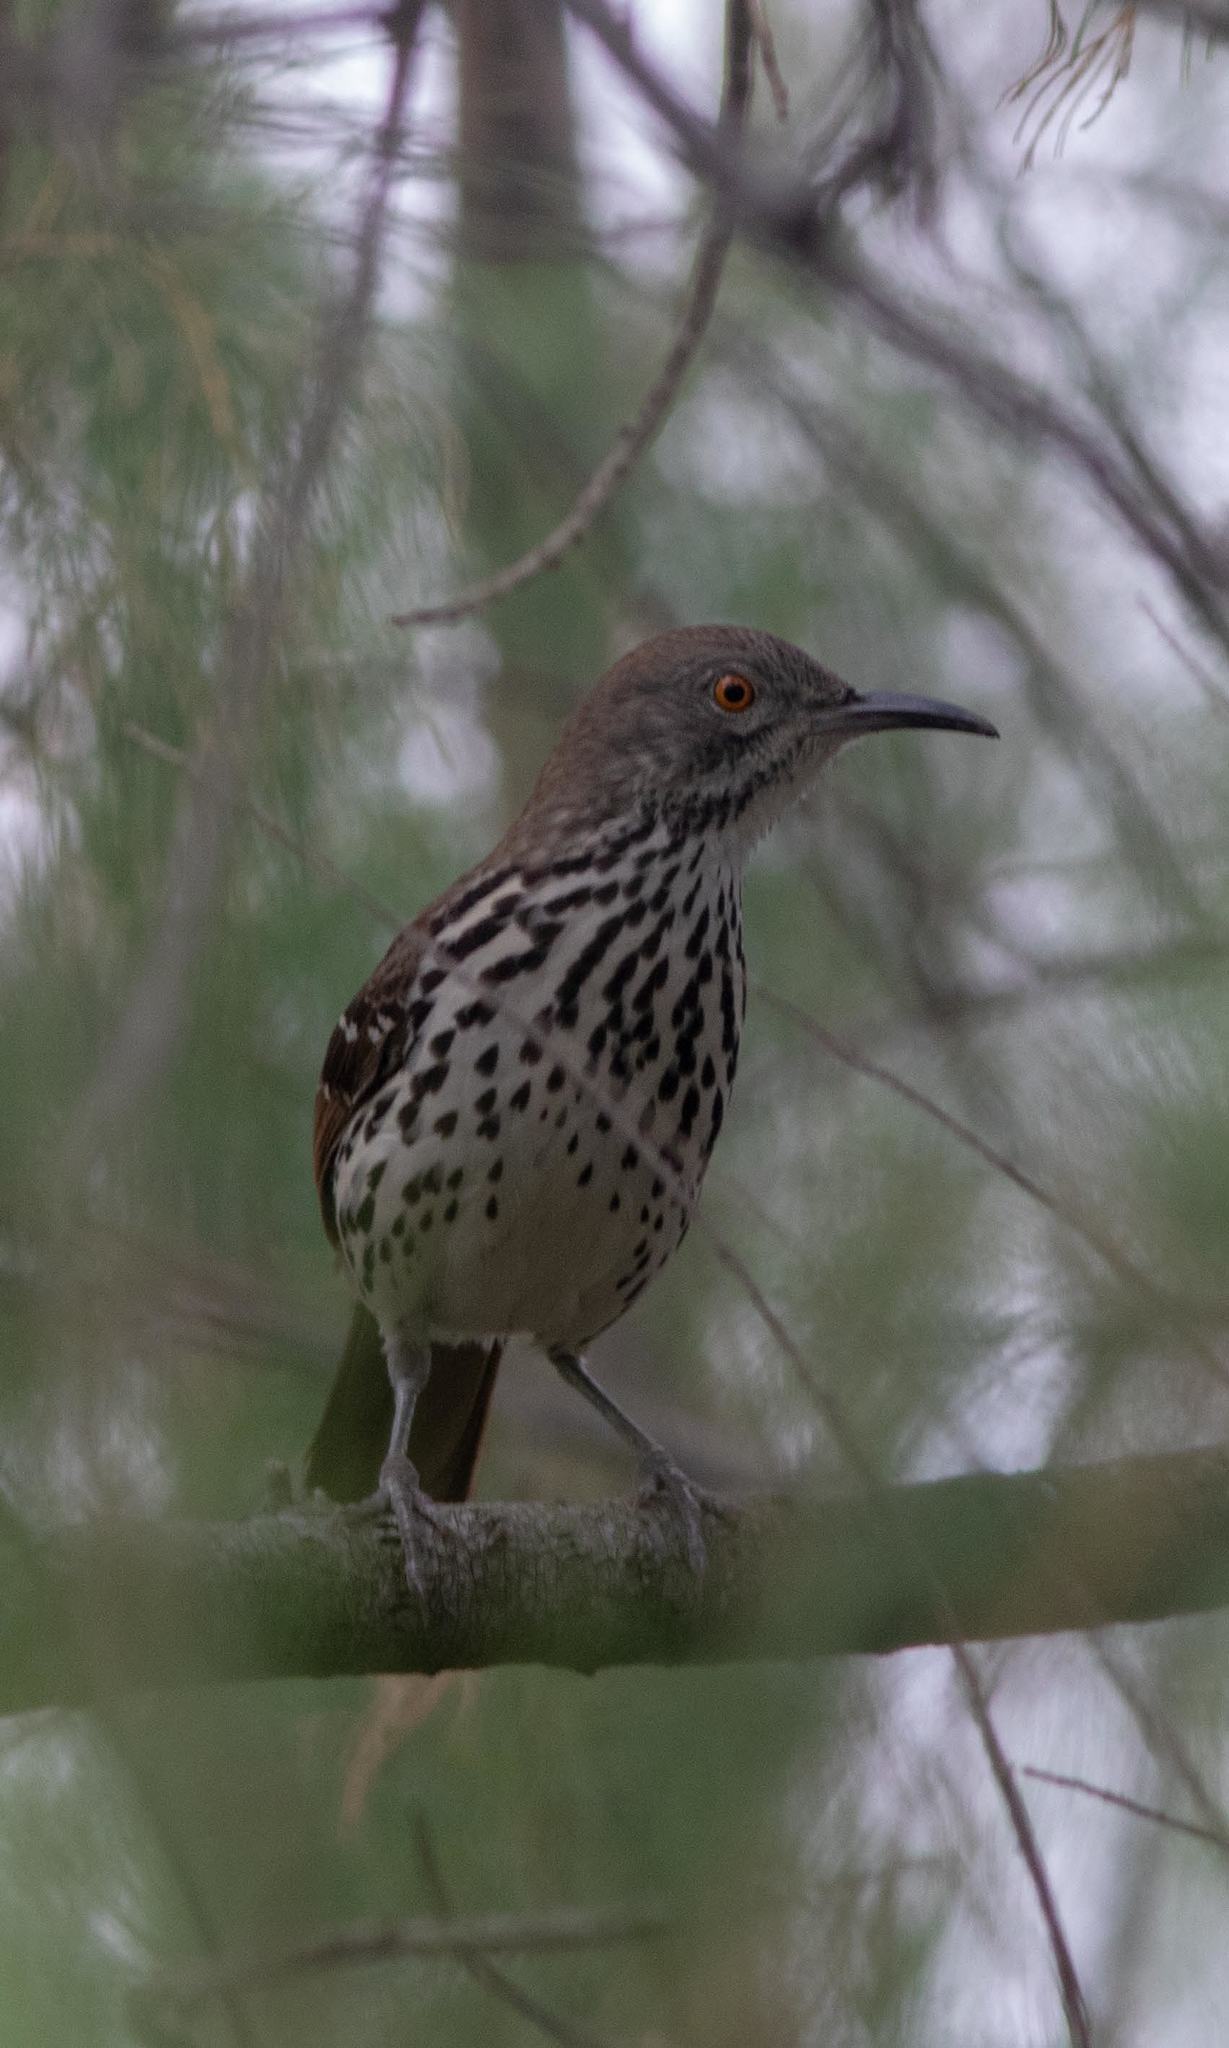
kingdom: Animalia
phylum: Chordata
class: Aves
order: Passeriformes
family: Mimidae
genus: Toxostoma
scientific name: Toxostoma longirostre
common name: Long-billed thrasher
